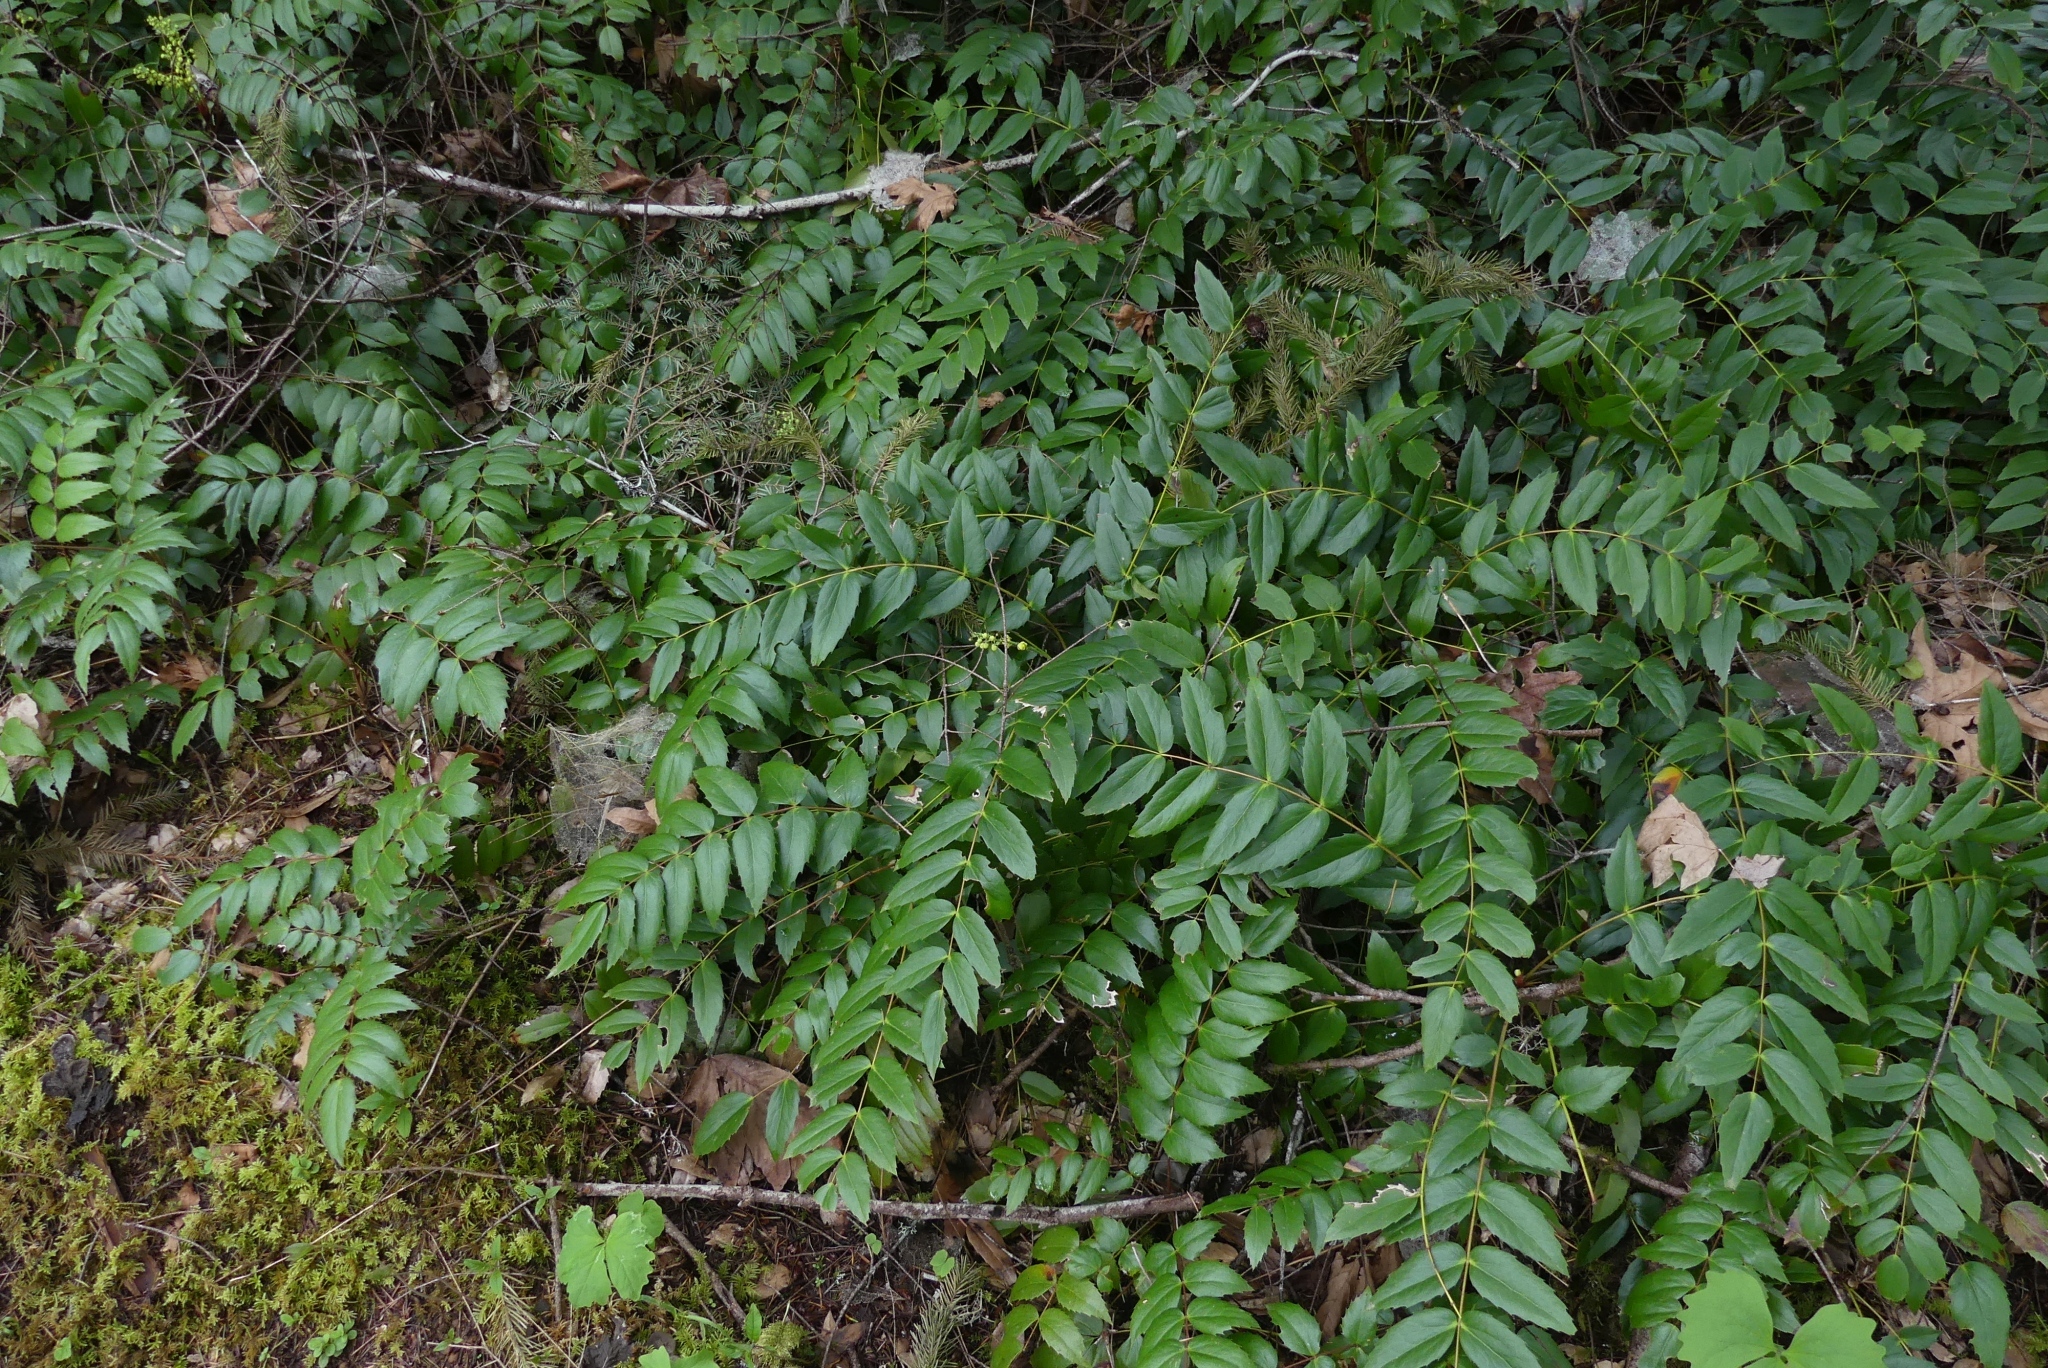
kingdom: Plantae
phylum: Tracheophyta
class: Magnoliopsida
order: Ranunculales
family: Berberidaceae
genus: Mahonia
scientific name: Mahonia nervosa
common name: Cascade oregon-grape
